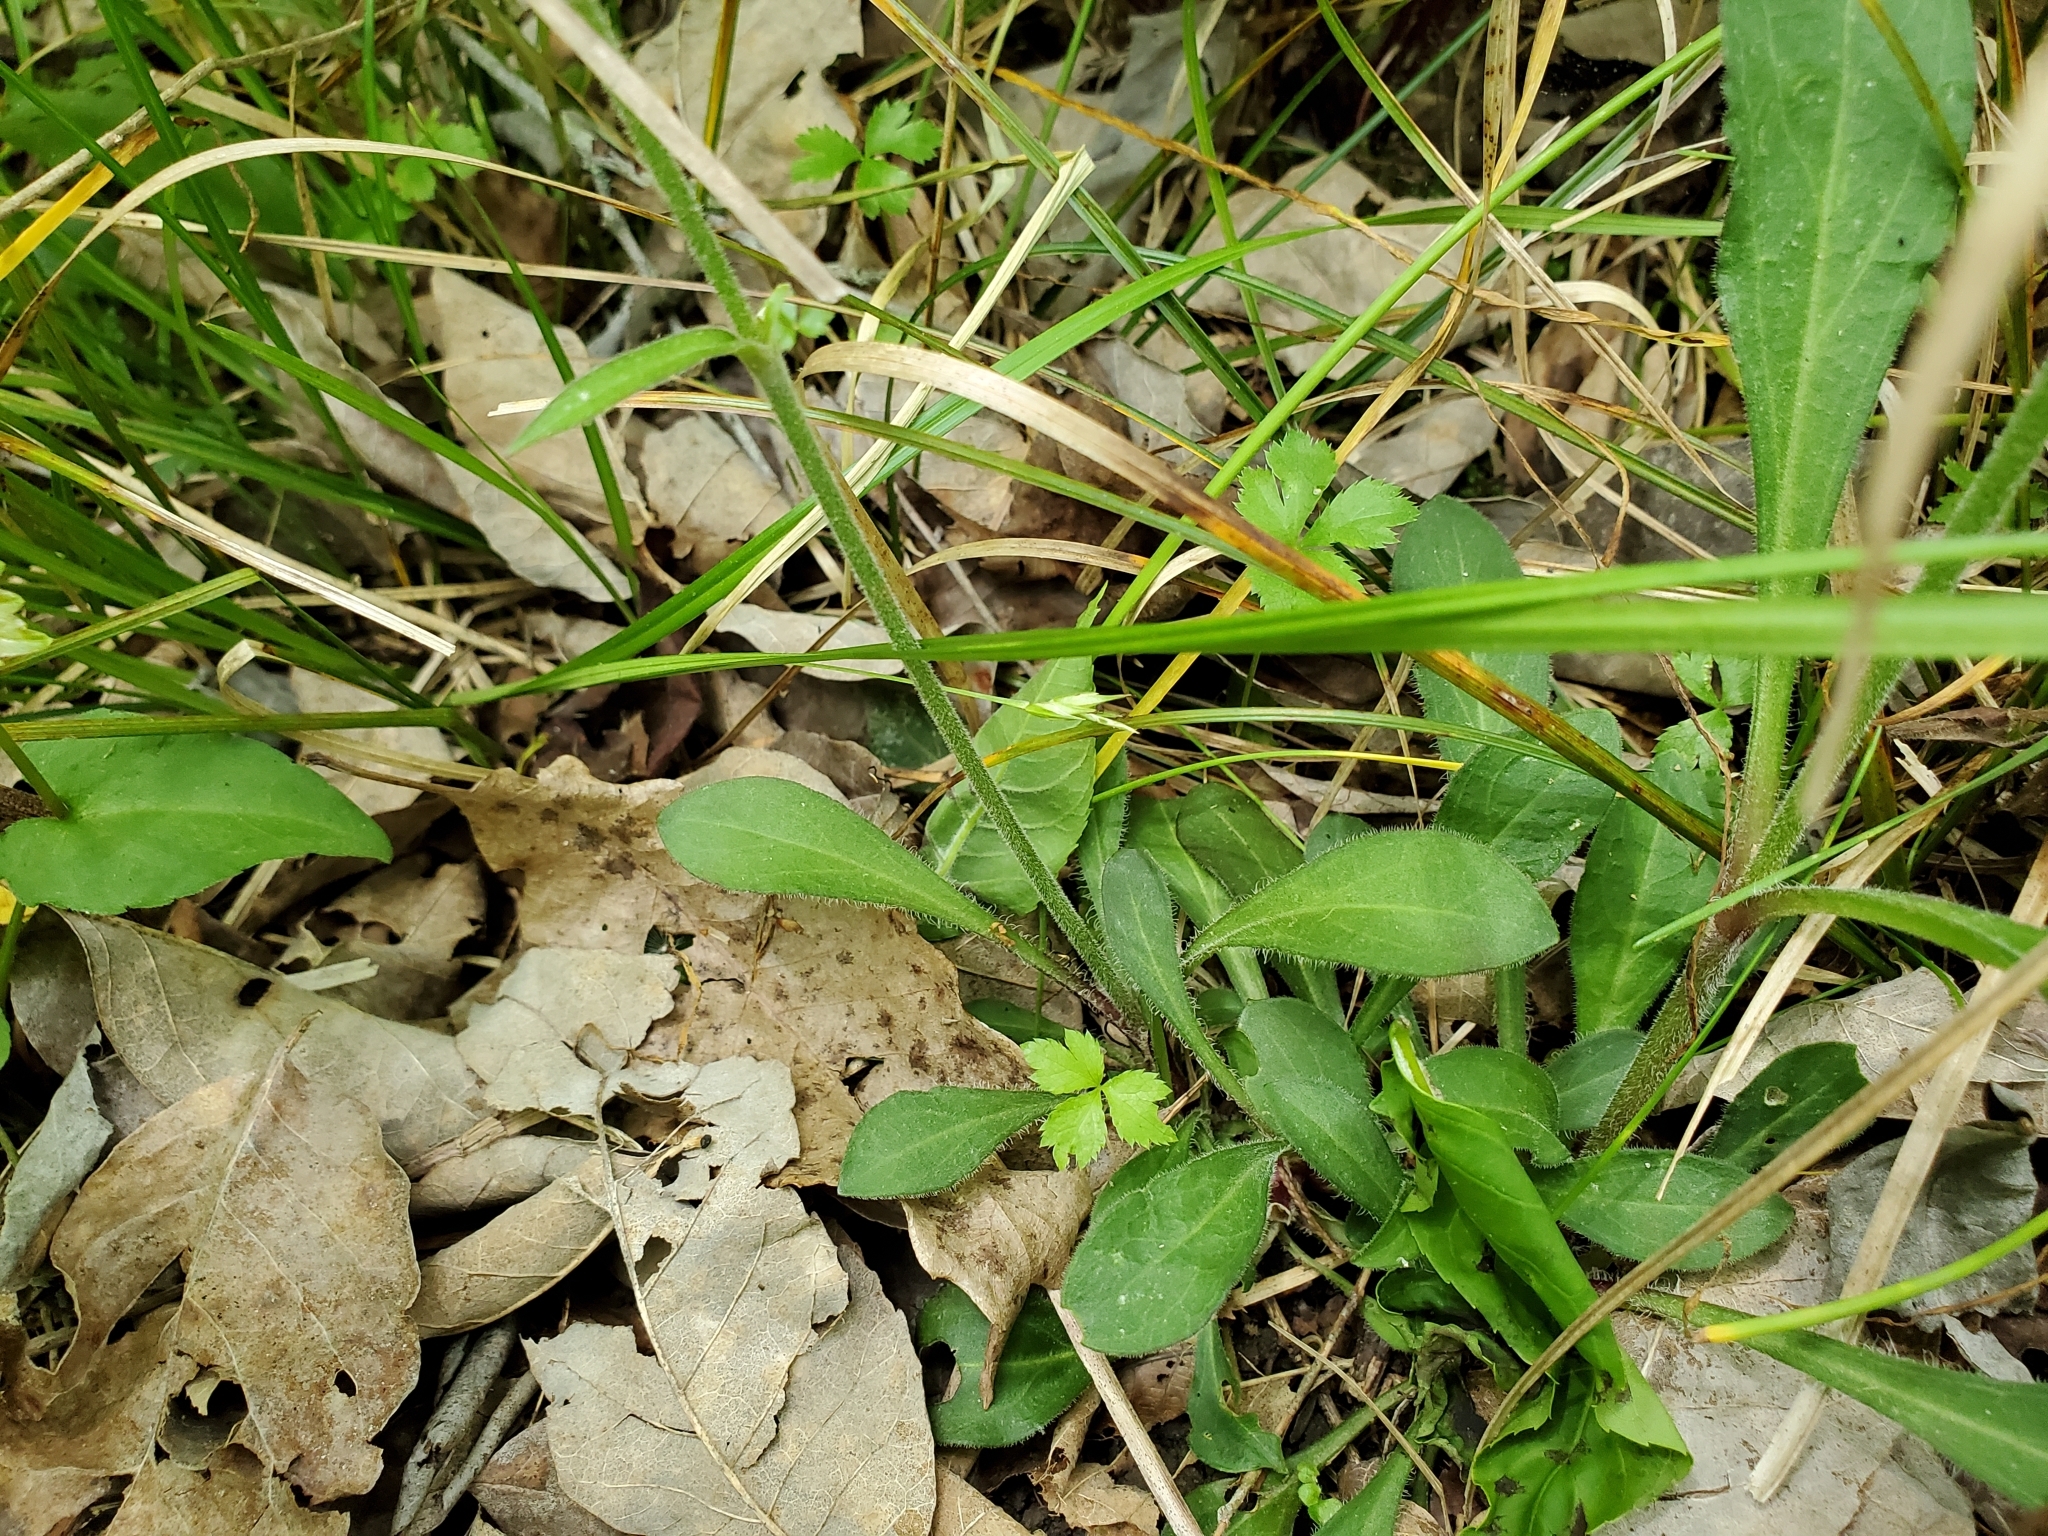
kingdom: Plantae
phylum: Tracheophyta
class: Magnoliopsida
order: Caryophyllales
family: Caryophyllaceae
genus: Silene
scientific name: Silene virginica
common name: Fire-pink
